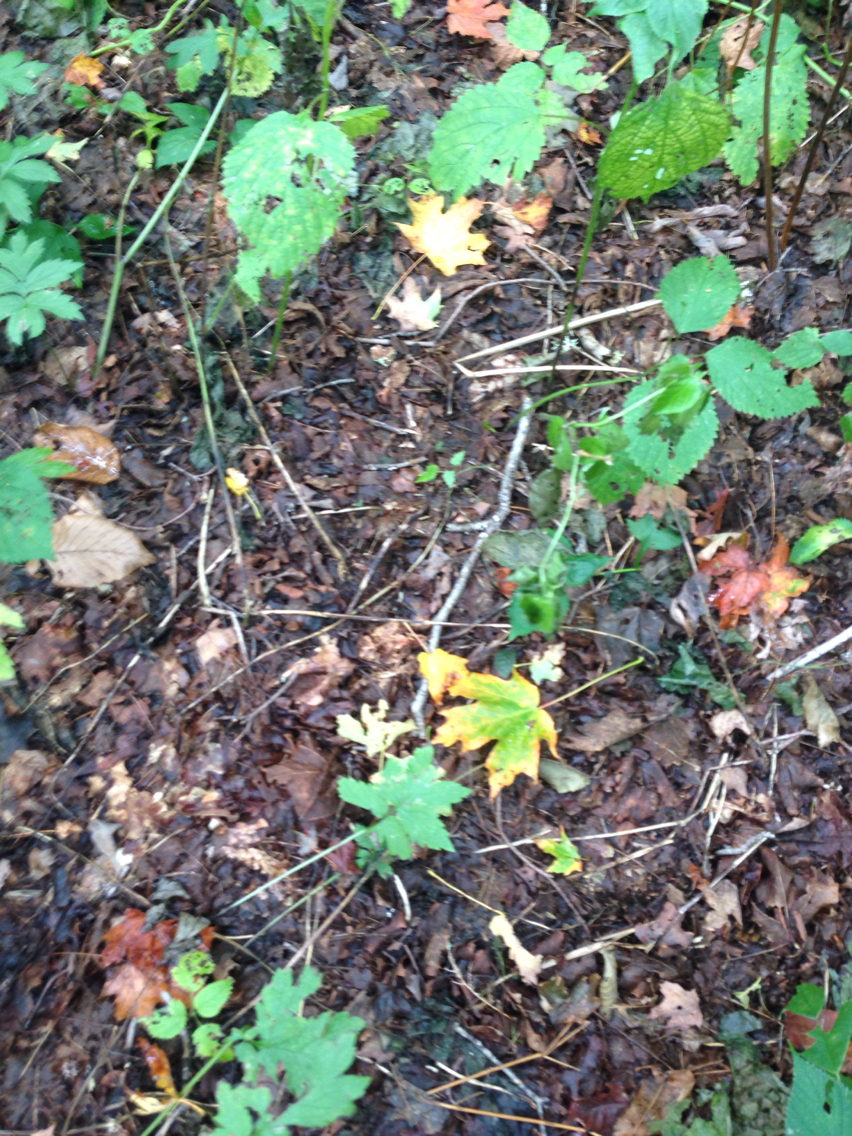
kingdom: Plantae
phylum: Tracheophyta
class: Magnoliopsida
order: Sapindales
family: Sapindaceae
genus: Acer
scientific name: Acer saccharum
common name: Sugar maple
